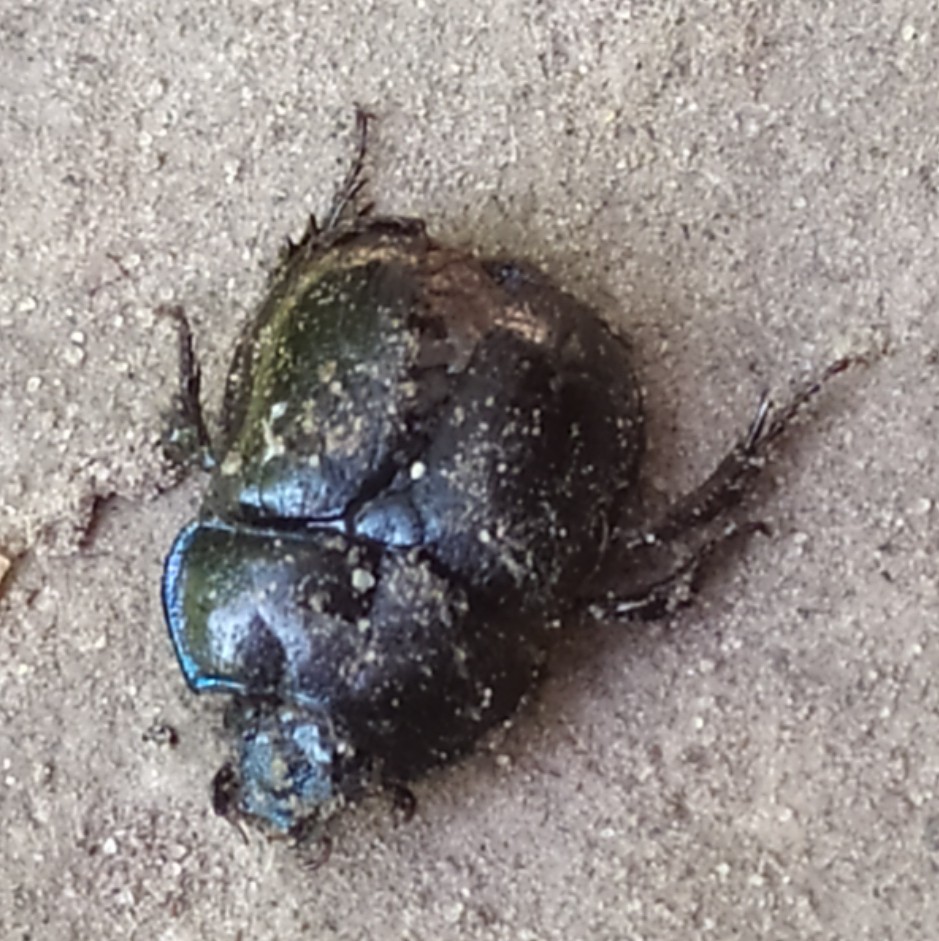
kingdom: Animalia
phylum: Arthropoda
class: Insecta
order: Coleoptera
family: Geotrupidae
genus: Anoplotrupes
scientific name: Anoplotrupes stercorosus
